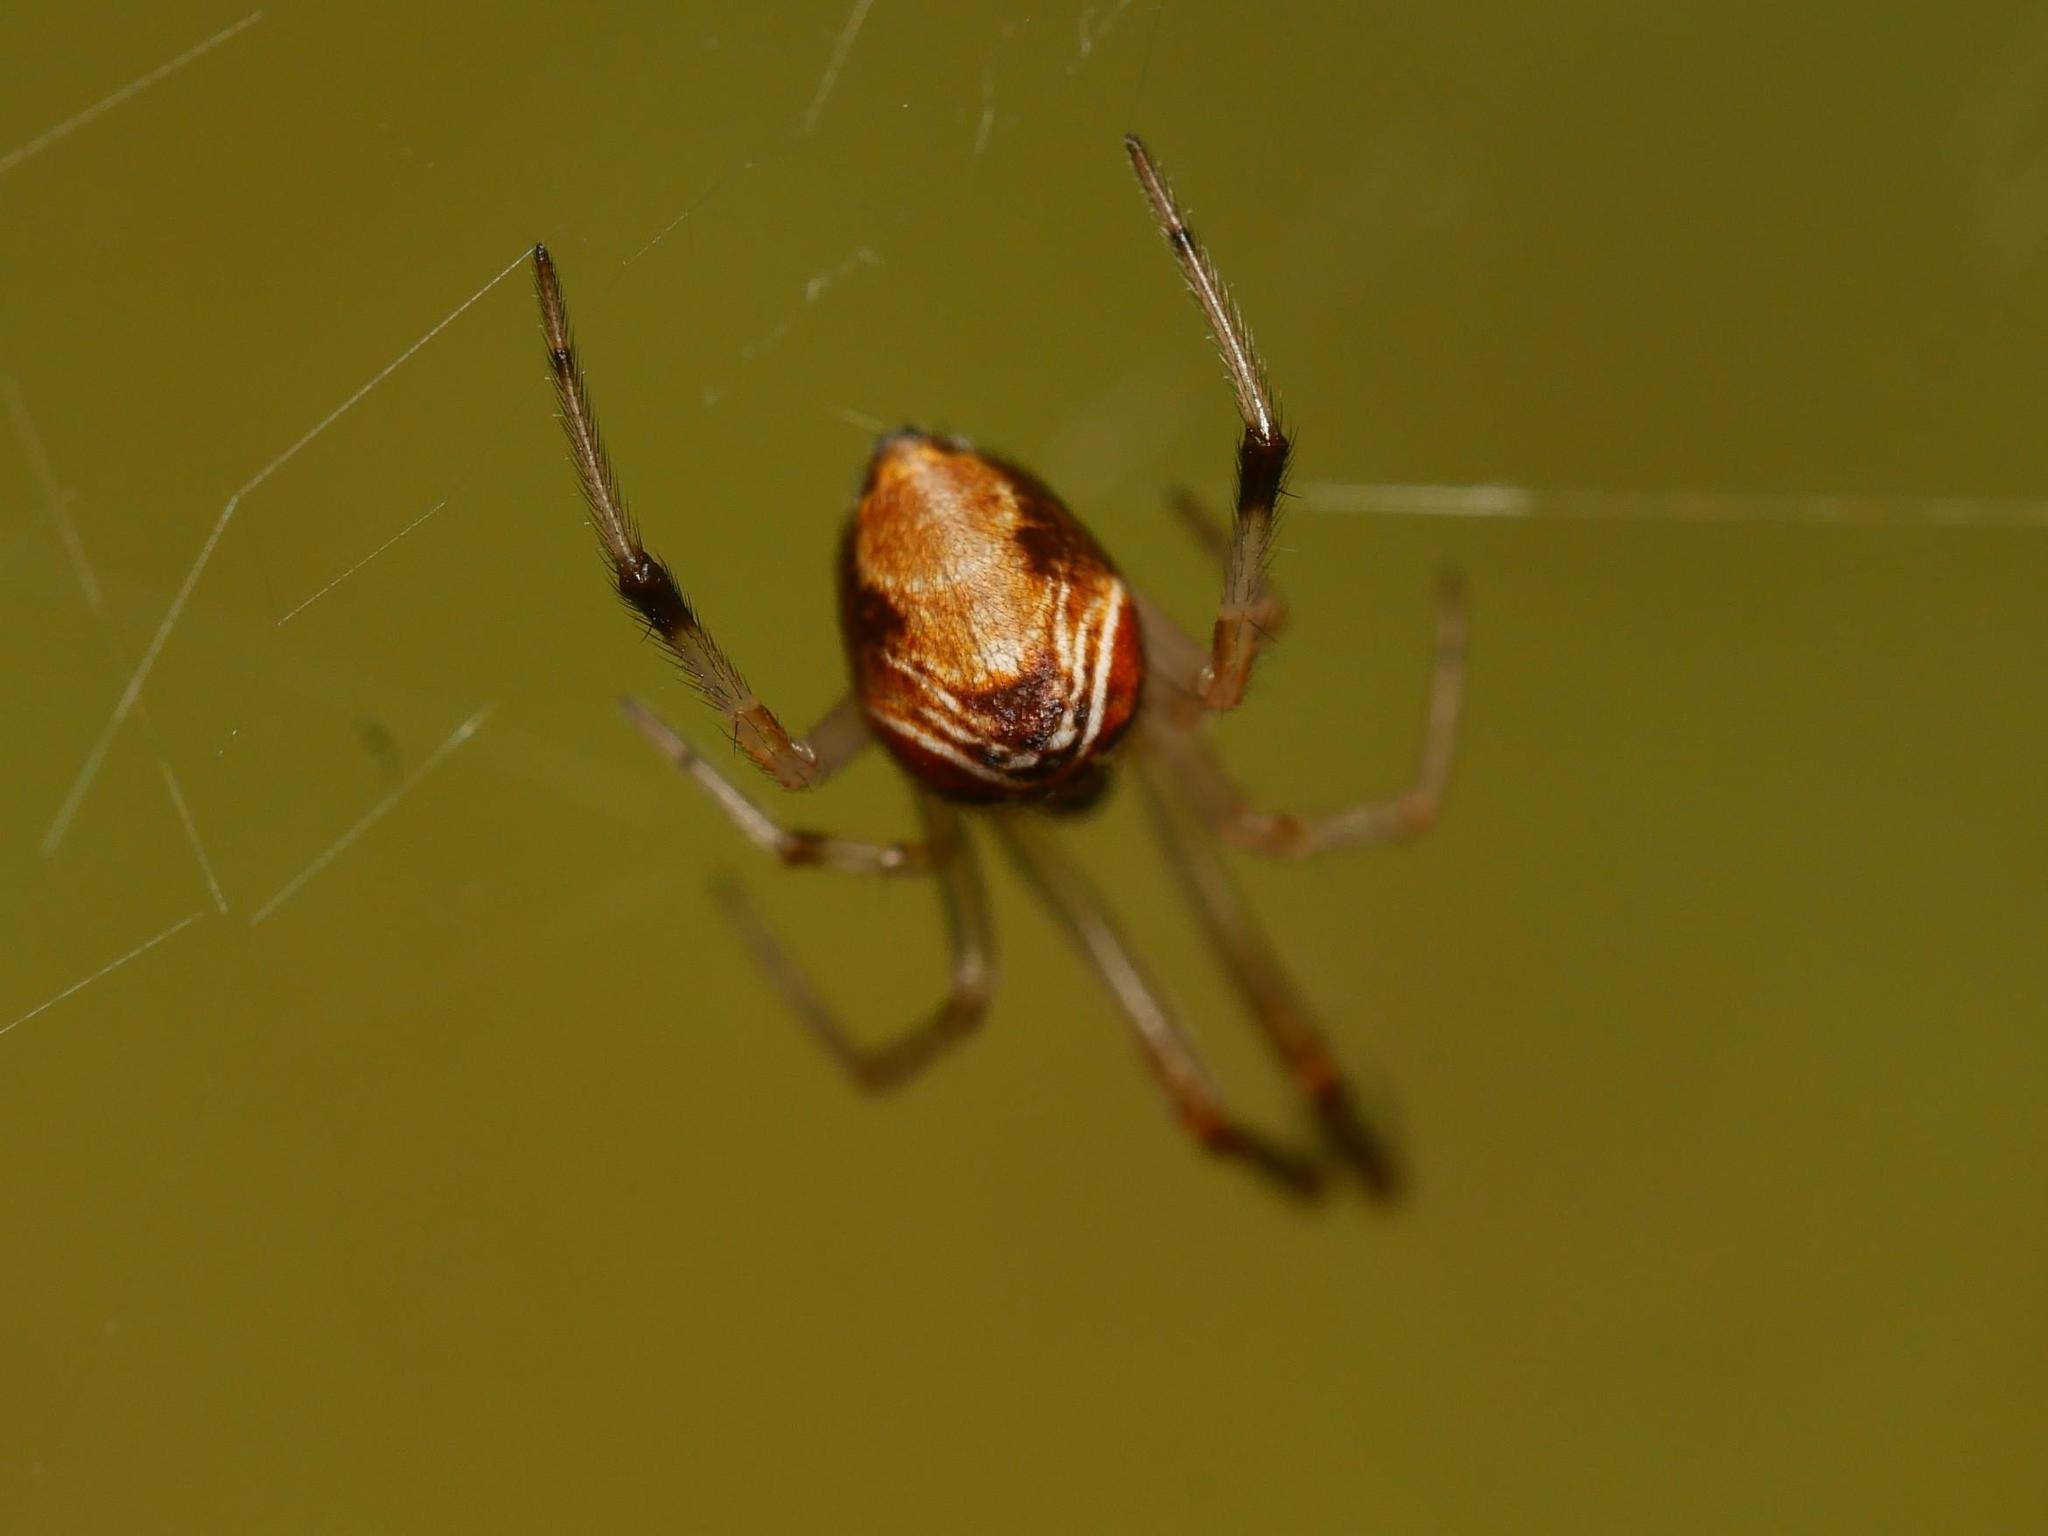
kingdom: Animalia
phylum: Arthropoda
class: Arachnida
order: Araneae
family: Theridiidae
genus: Parasteatoda
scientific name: Parasteatoda lunata
